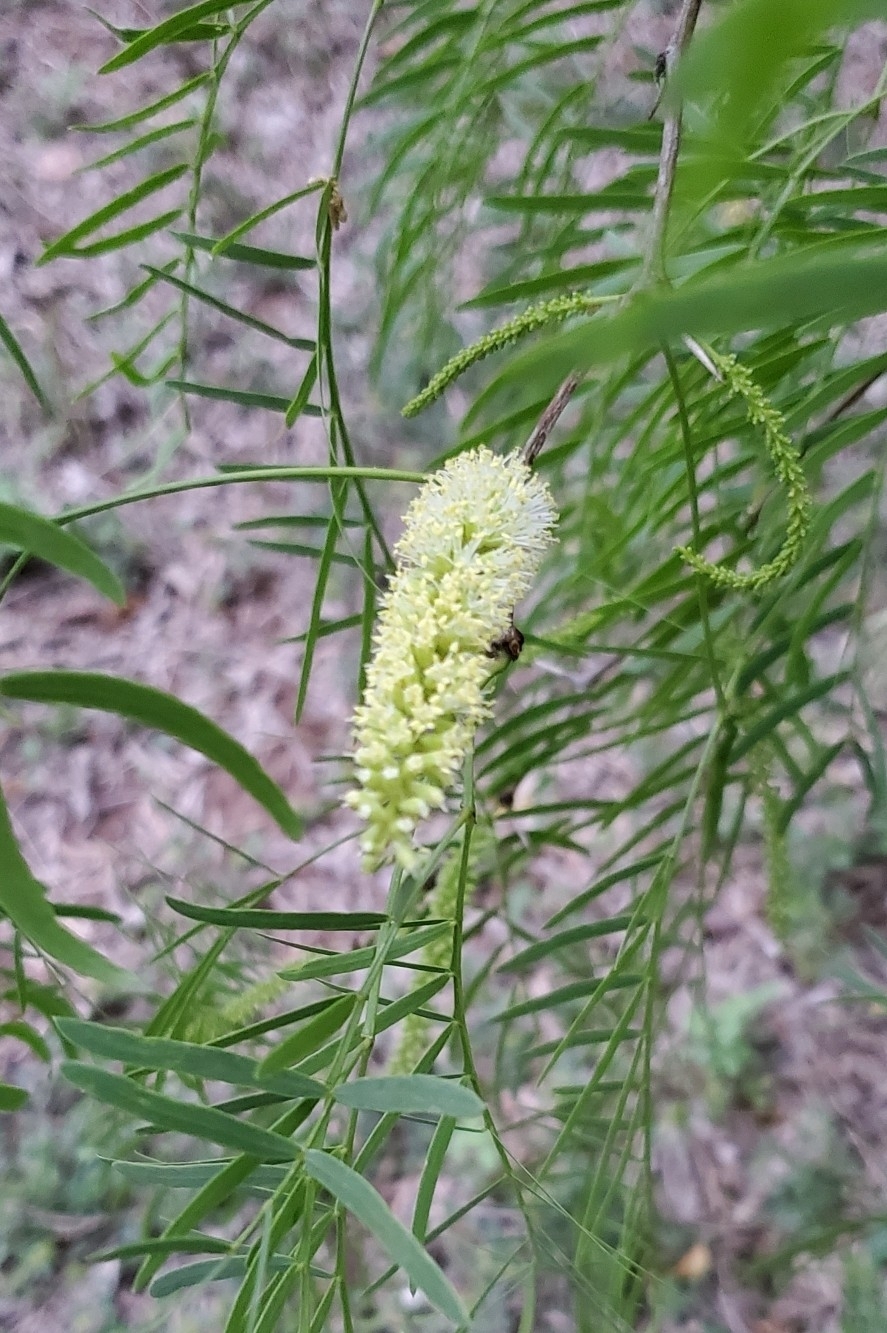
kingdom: Plantae
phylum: Tracheophyta
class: Magnoliopsida
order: Fabales
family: Fabaceae
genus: Prosopis
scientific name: Prosopis glandulosa
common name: Honey mesquite
